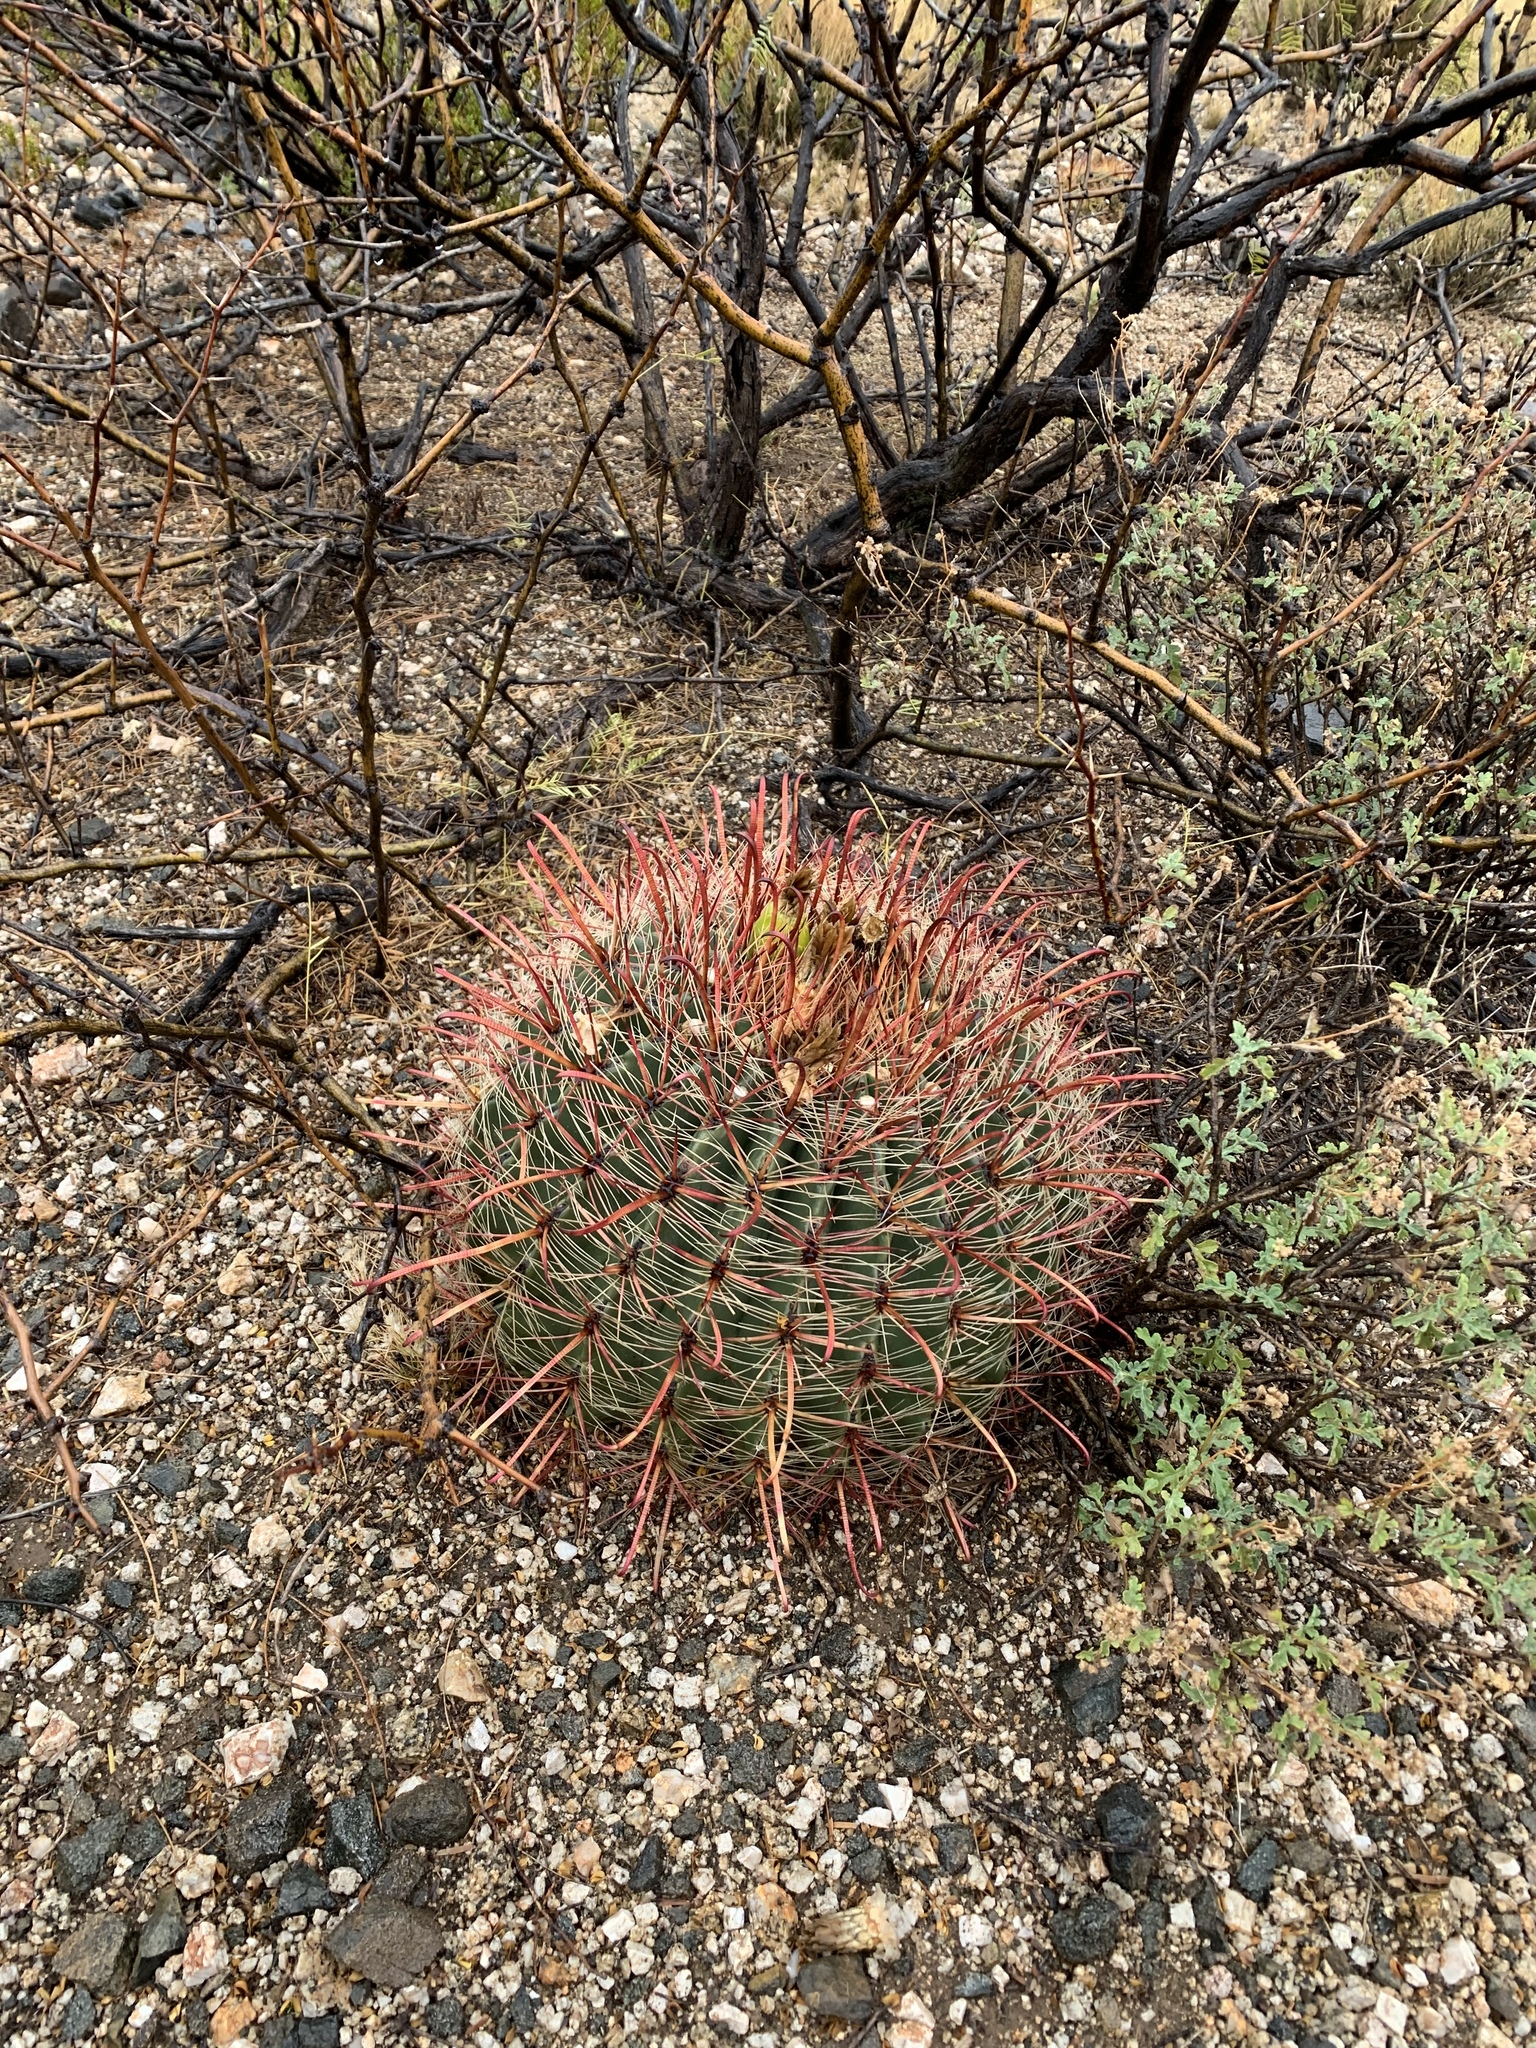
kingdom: Plantae
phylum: Tracheophyta
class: Magnoliopsida
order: Caryophyllales
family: Cactaceae
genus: Ferocactus
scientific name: Ferocactus wislizeni
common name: Candy barrel cactus
